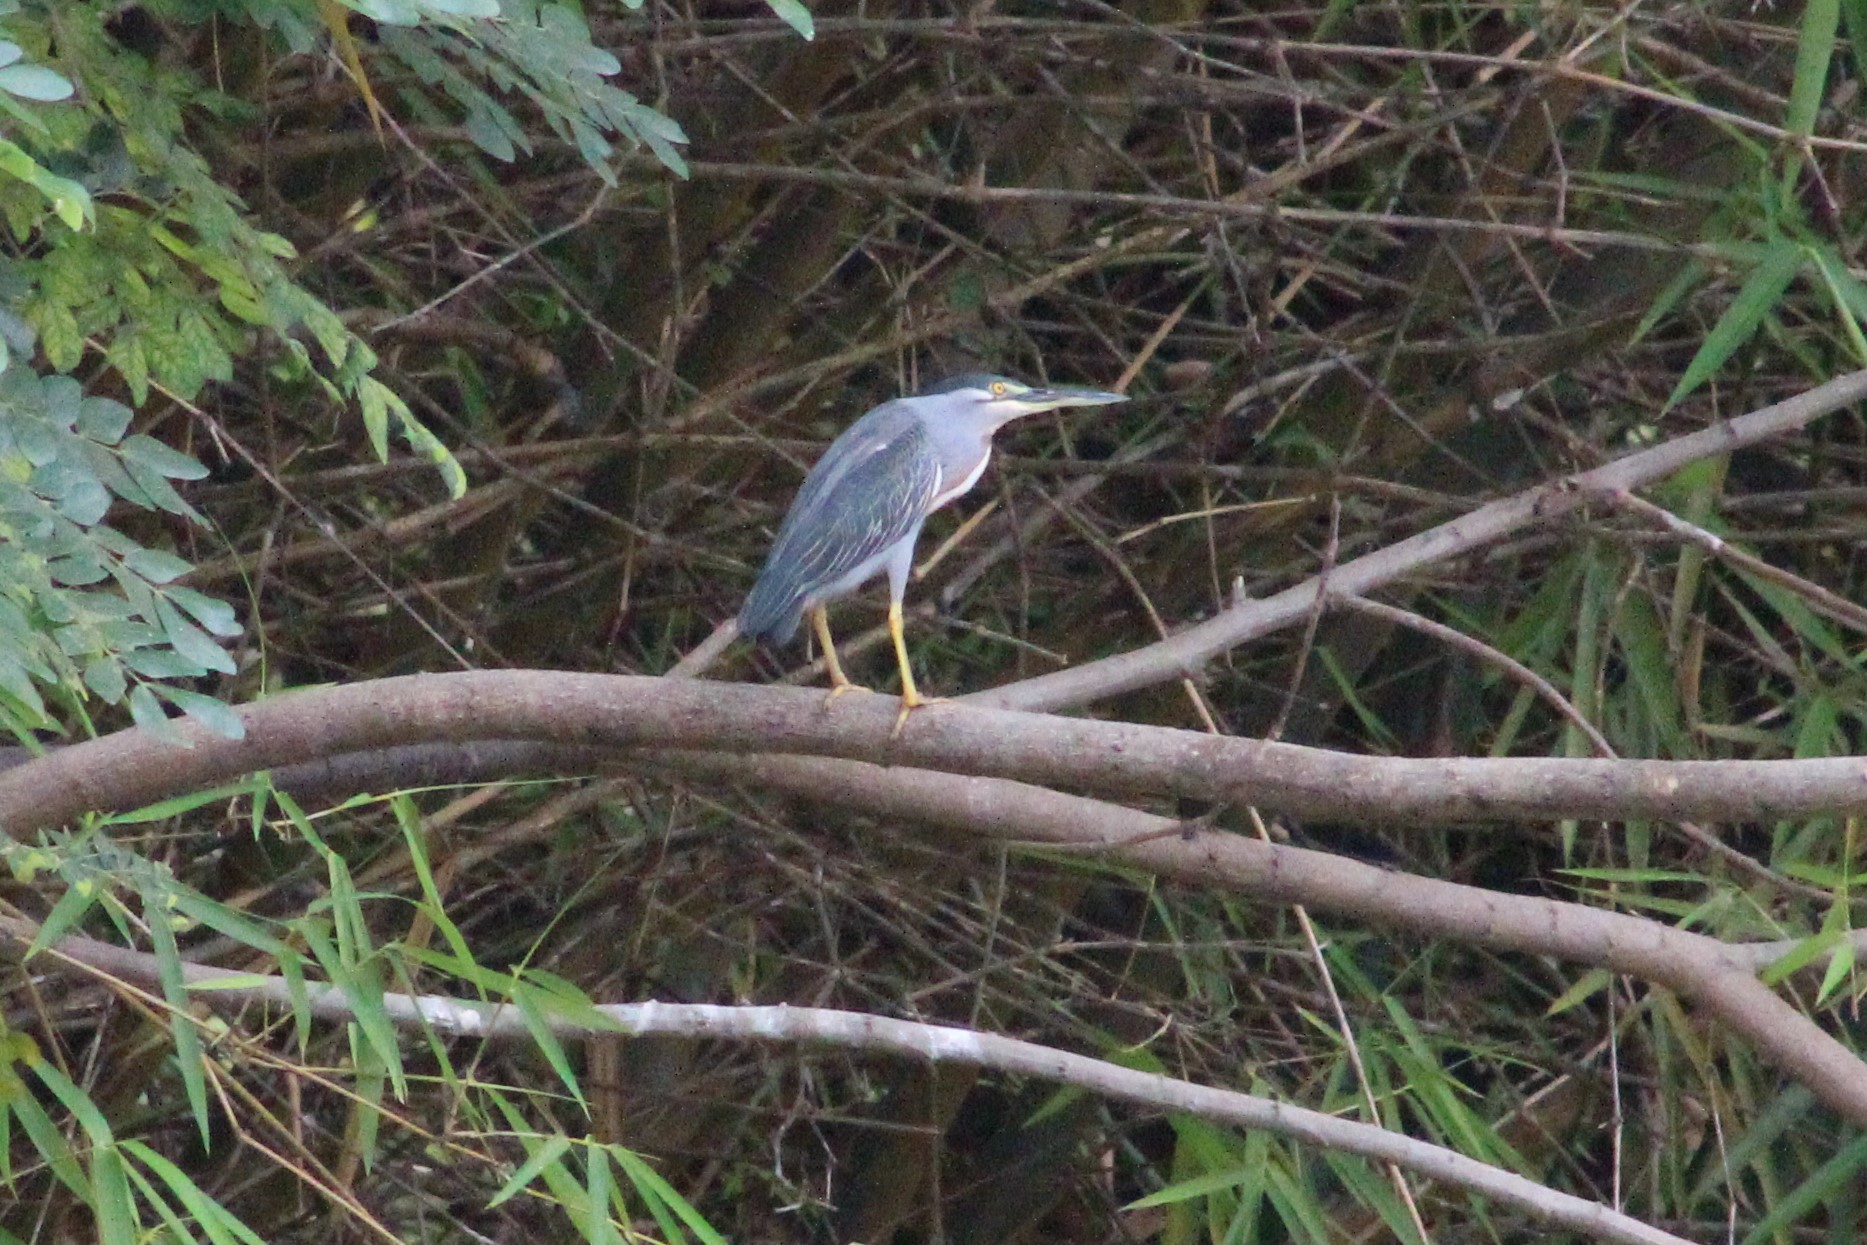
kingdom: Animalia
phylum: Chordata
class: Aves
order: Pelecaniformes
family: Ardeidae
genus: Butorides
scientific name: Butorides striata
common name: Striated heron
